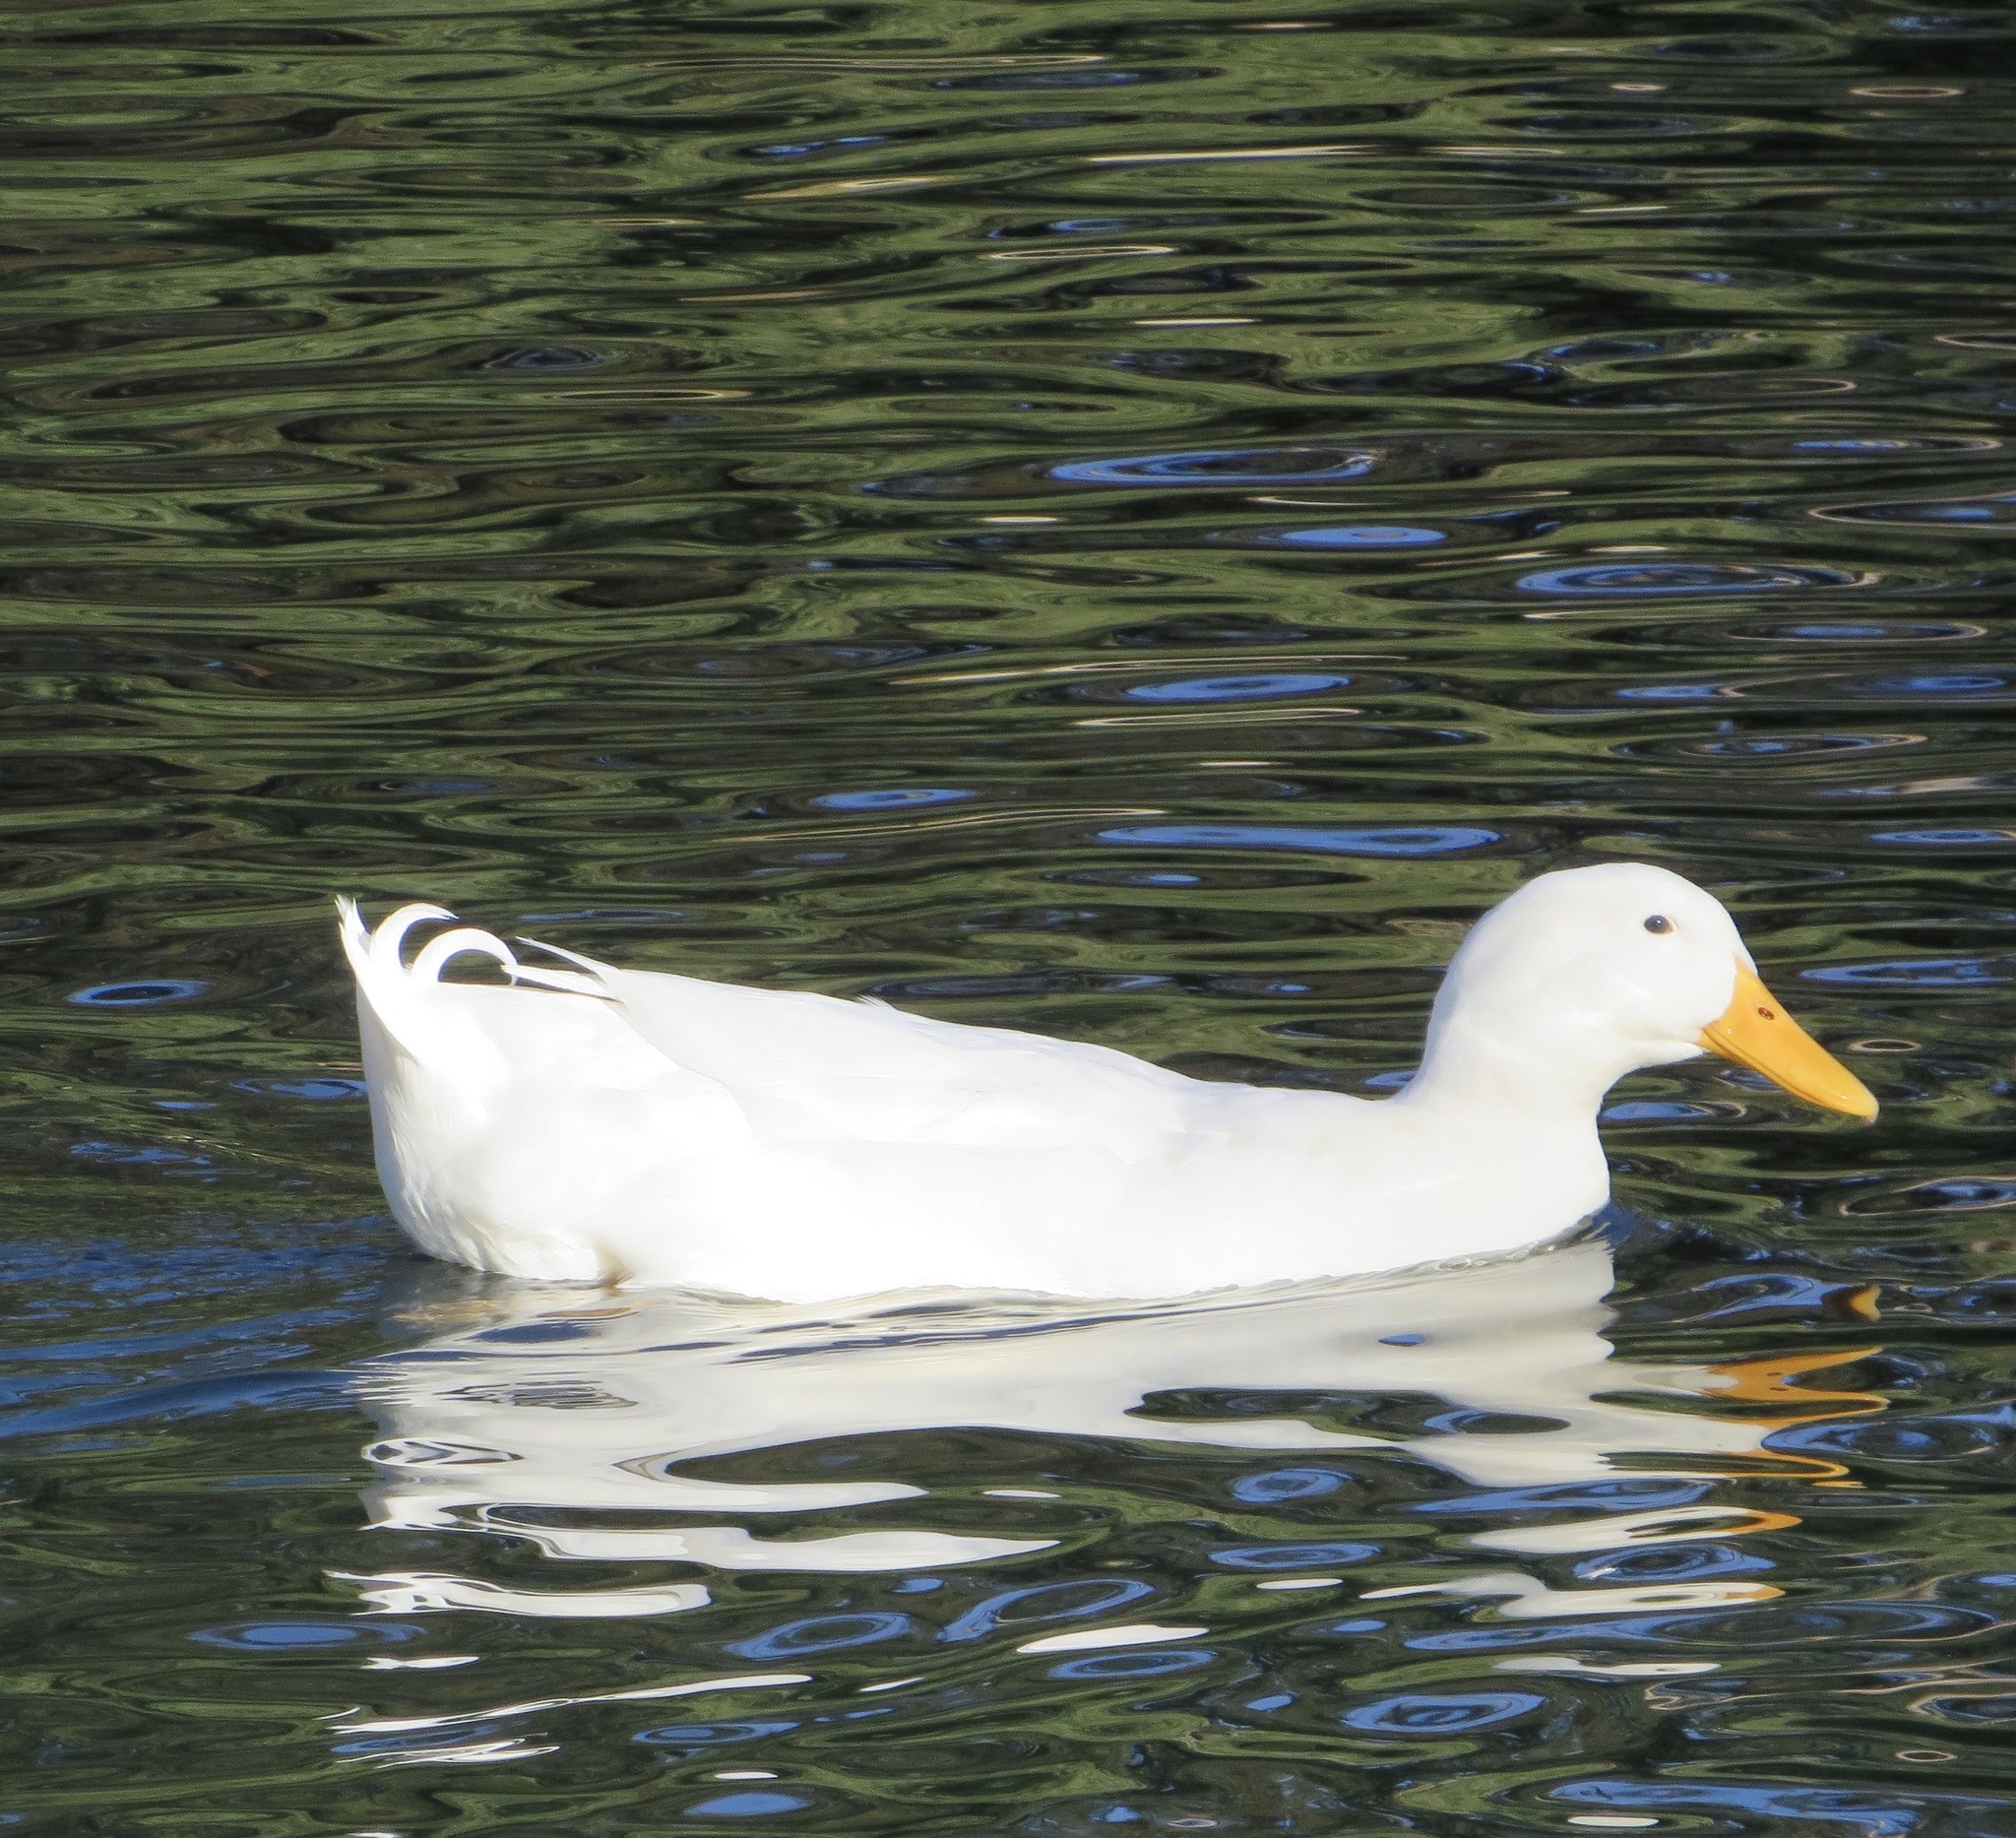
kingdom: Animalia
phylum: Chordata
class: Aves
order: Anseriformes
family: Anatidae
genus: Anas
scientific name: Anas platyrhynchos
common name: Mallard
